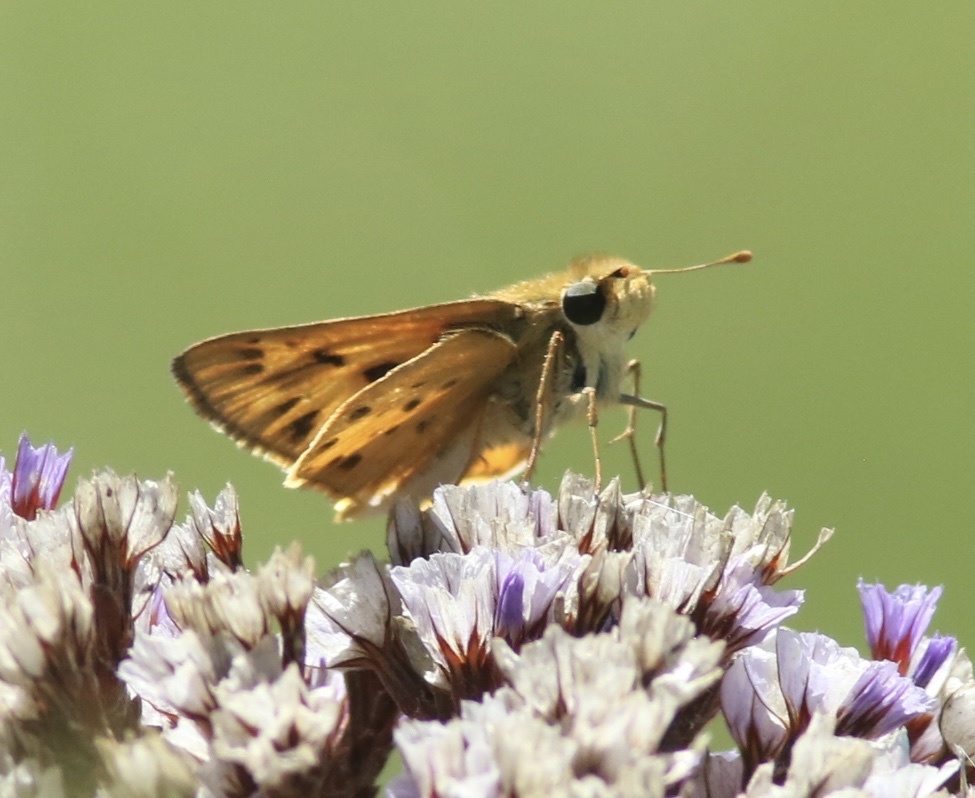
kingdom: Animalia
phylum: Arthropoda
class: Insecta
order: Lepidoptera
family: Hesperiidae
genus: Hylephila
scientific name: Hylephila phyleus
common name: Fiery skipper
